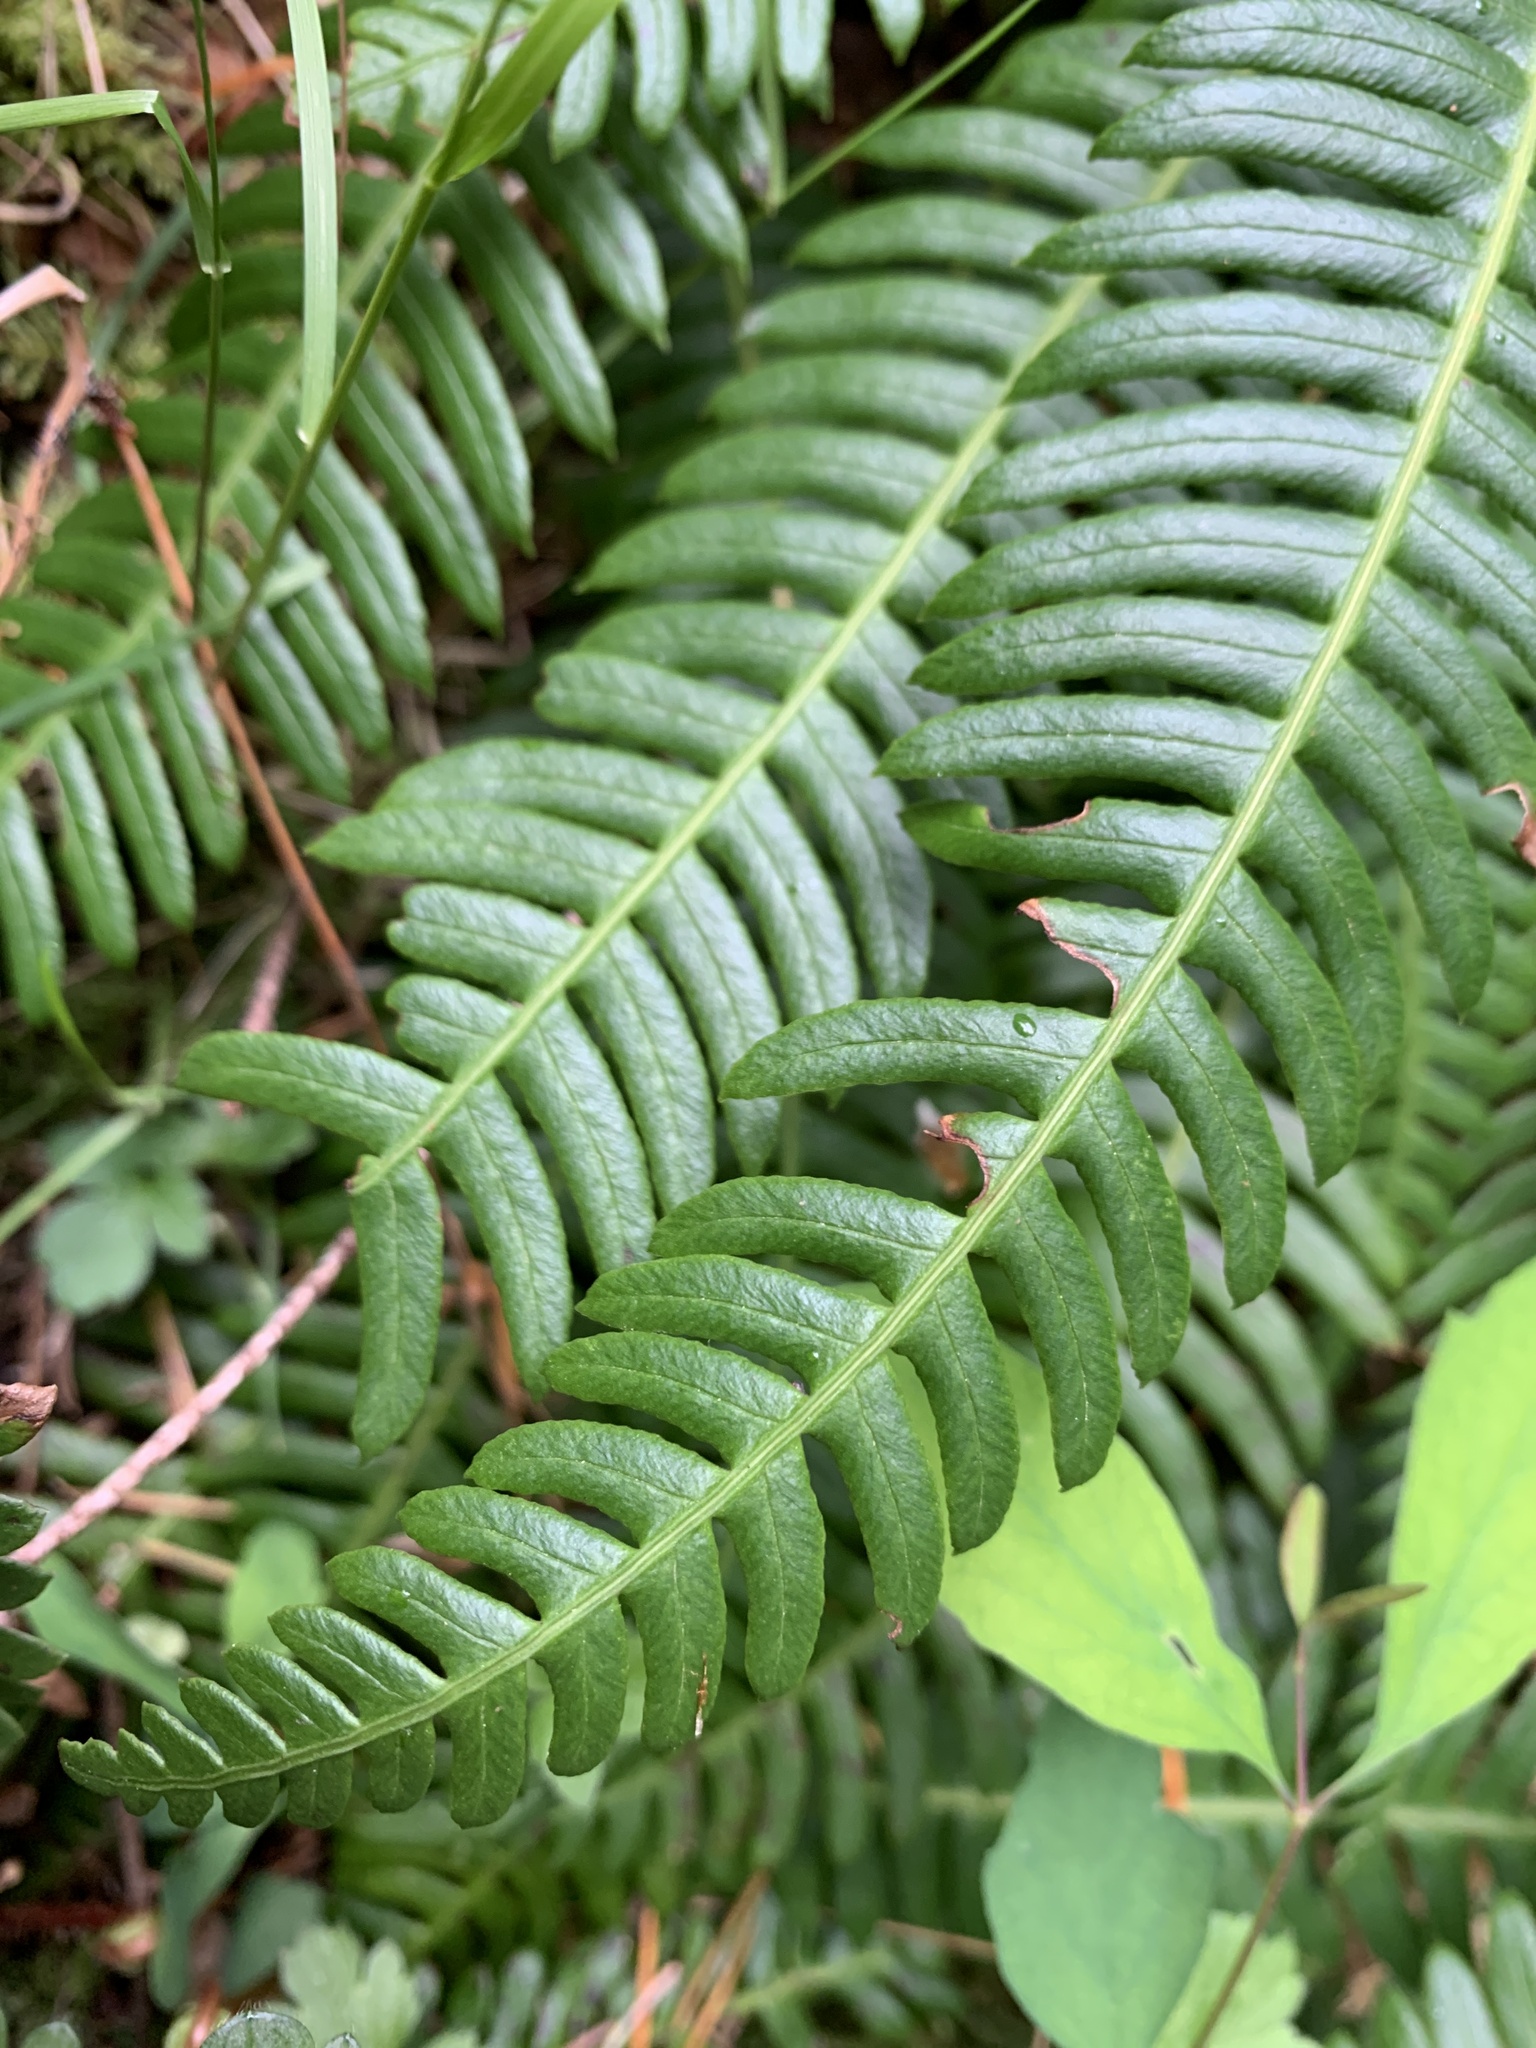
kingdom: Plantae
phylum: Tracheophyta
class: Polypodiopsida
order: Polypodiales
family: Blechnaceae
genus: Struthiopteris
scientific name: Struthiopteris spicant
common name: Deer fern
